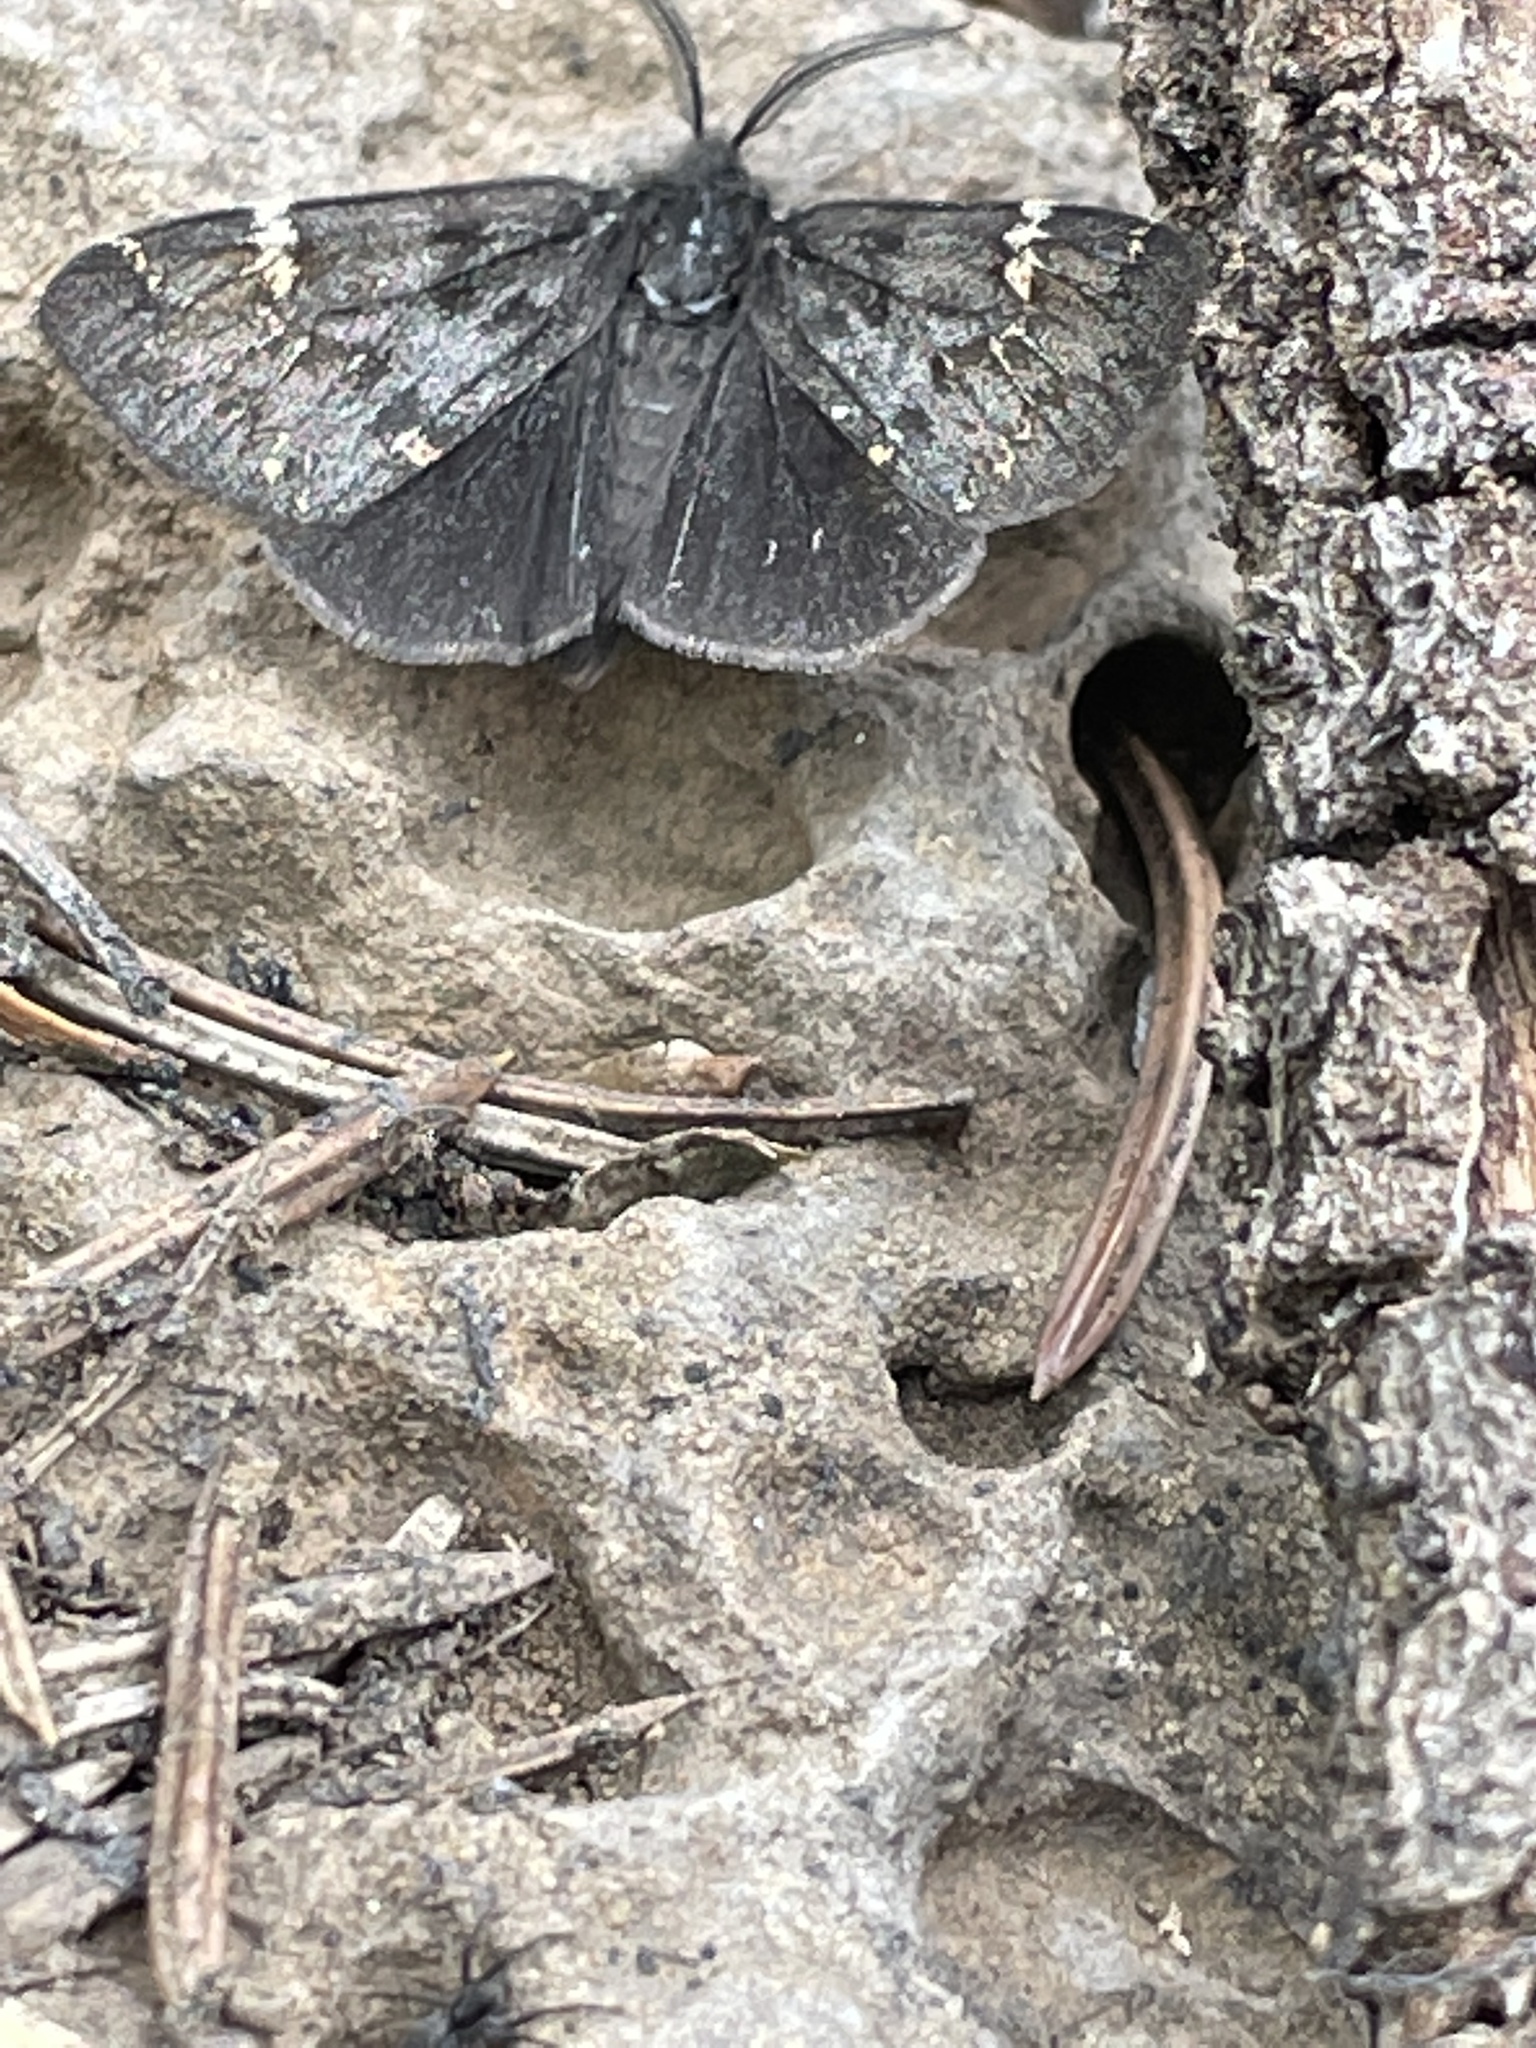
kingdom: Animalia
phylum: Arthropoda
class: Insecta
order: Lepidoptera
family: Erebidae
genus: Leptarctia
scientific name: Leptarctia californiae
